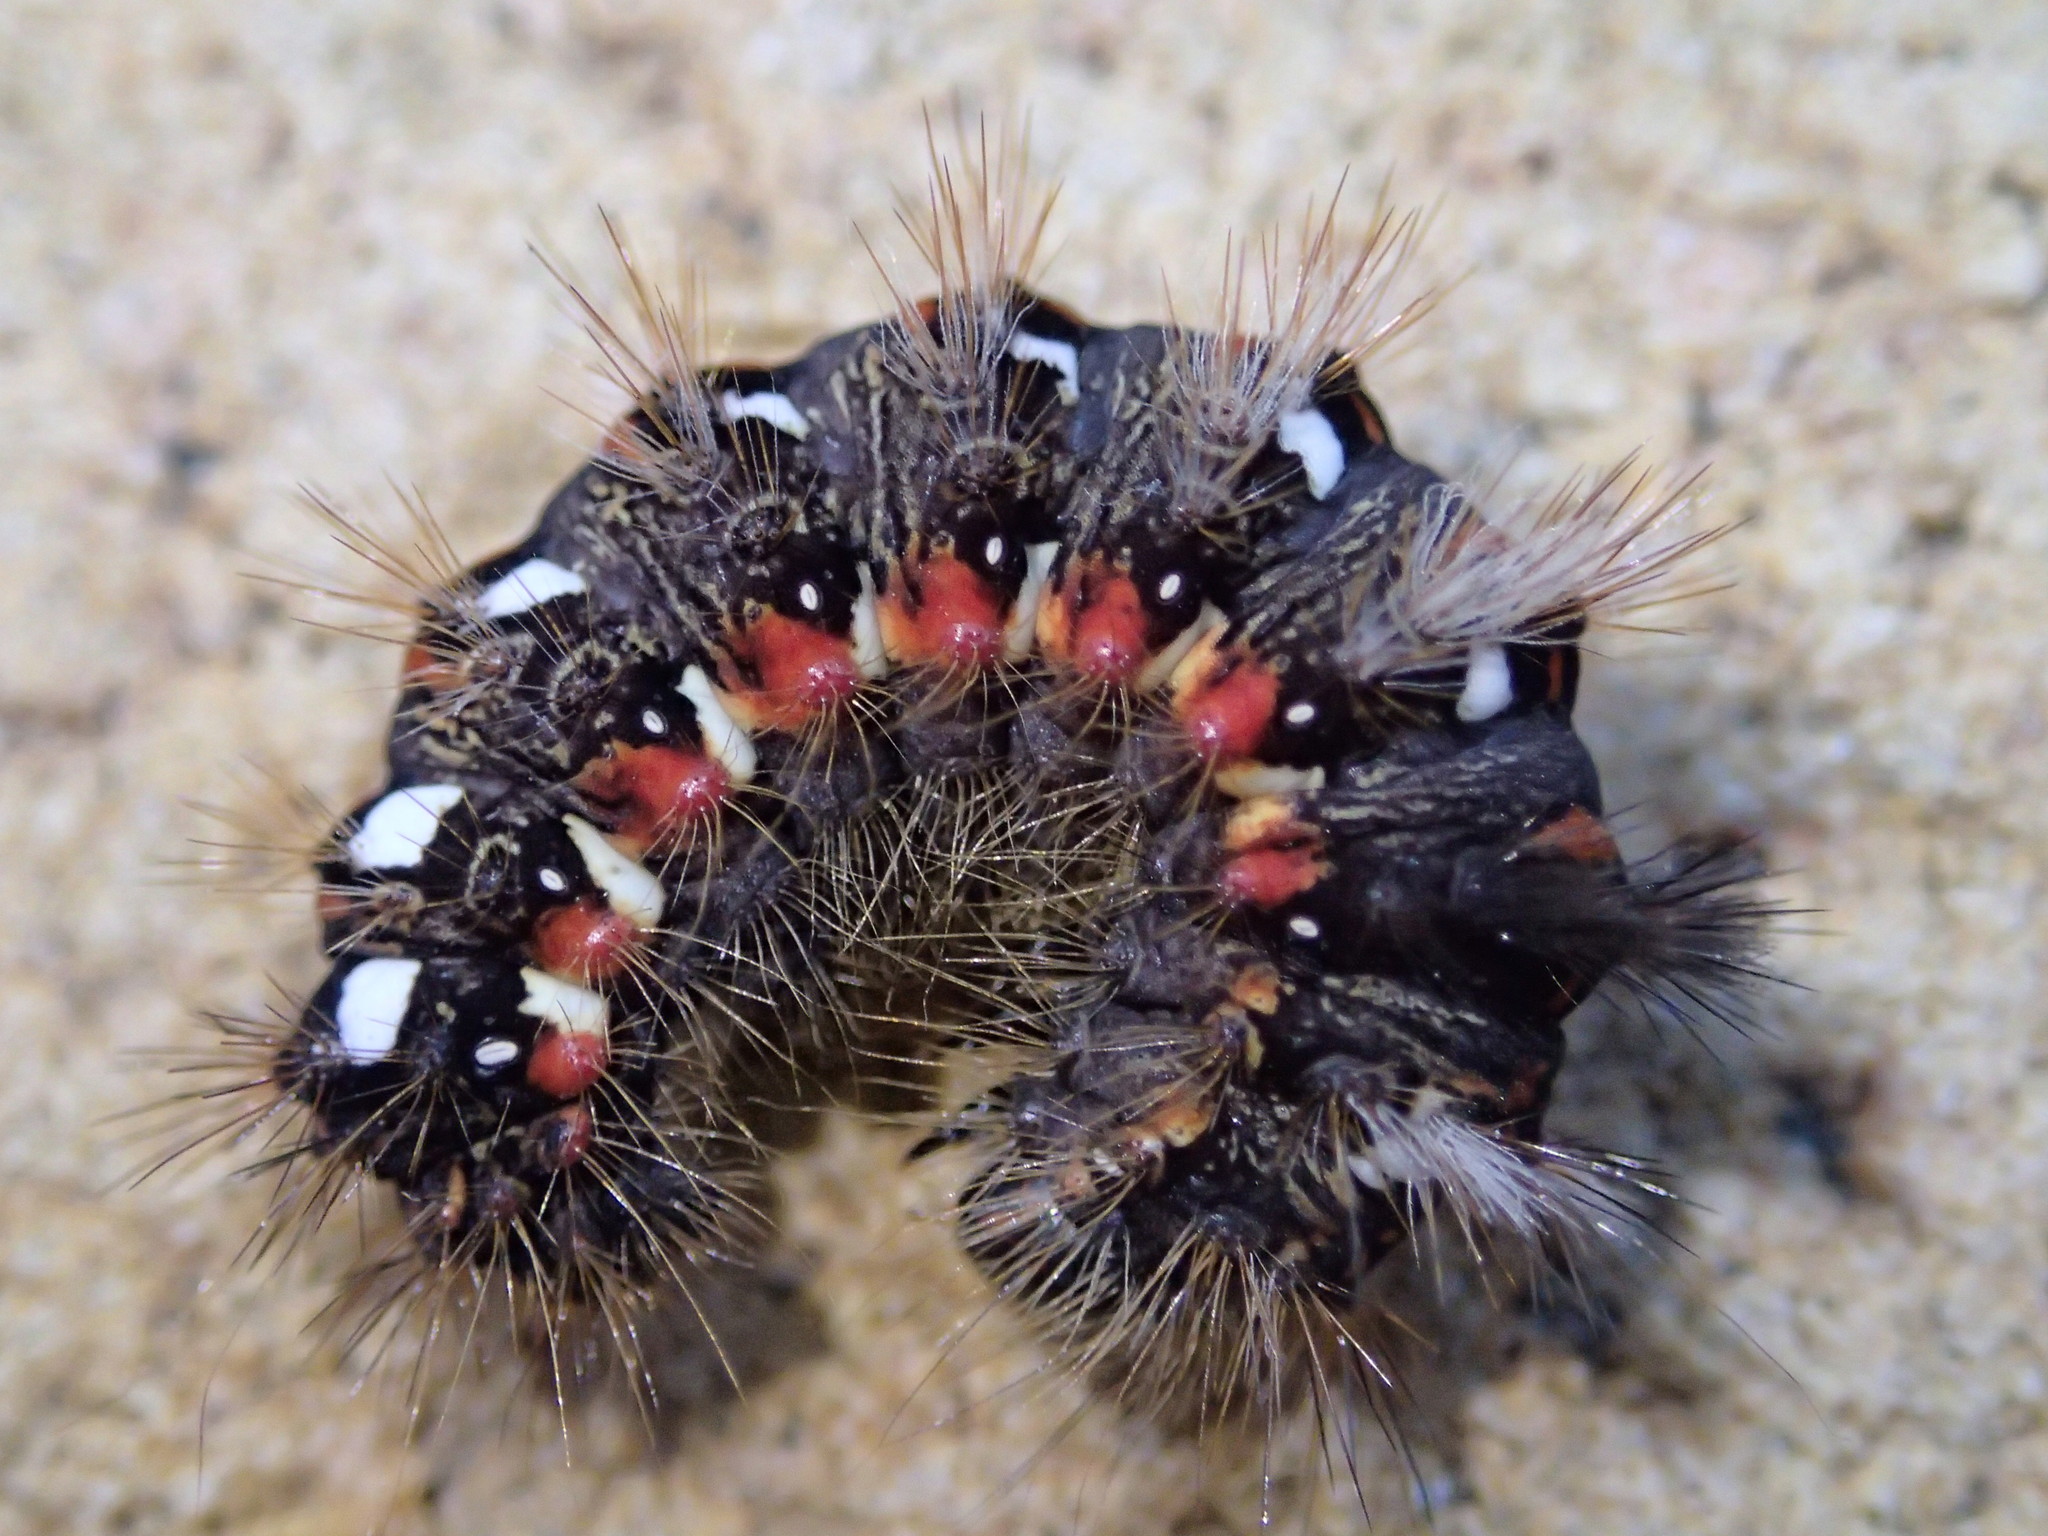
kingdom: Animalia
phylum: Arthropoda
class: Insecta
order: Lepidoptera
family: Noctuidae
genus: Acronicta
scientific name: Acronicta rumicis
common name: Knot grass
